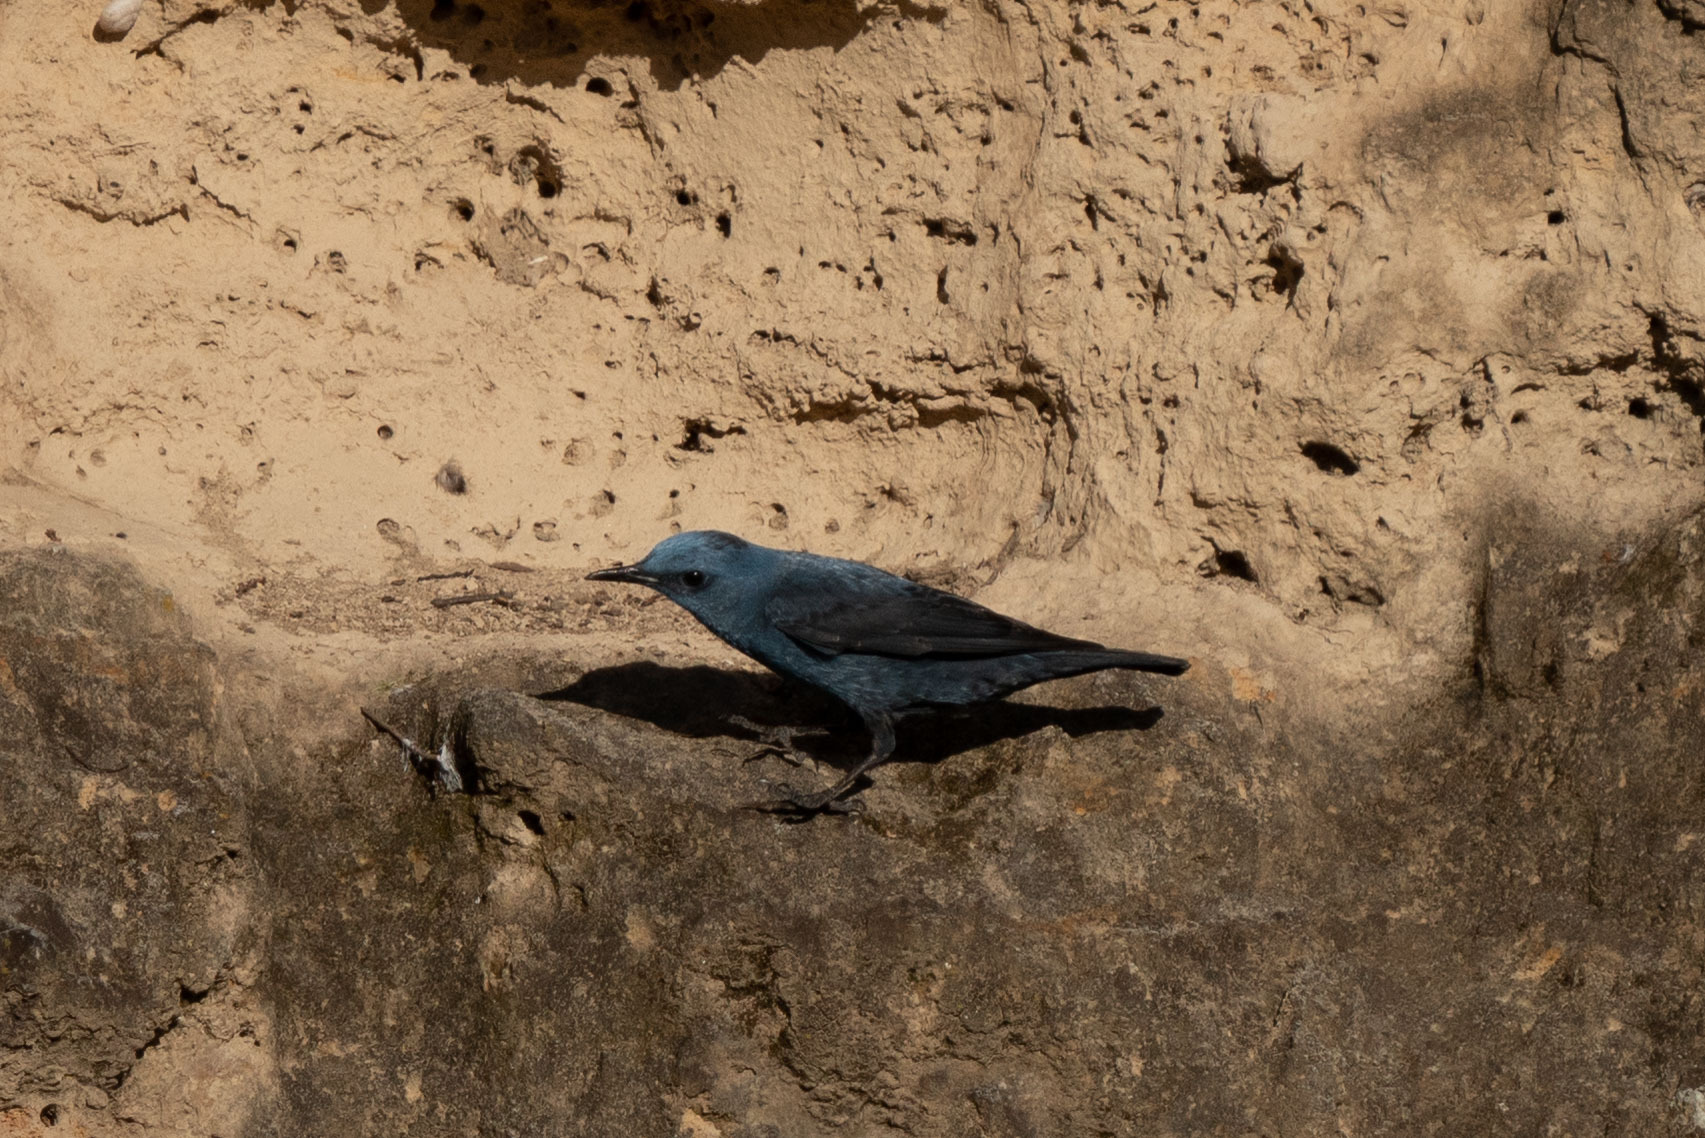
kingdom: Animalia
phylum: Chordata
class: Aves
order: Passeriformes
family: Muscicapidae
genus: Monticola
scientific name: Monticola solitarius
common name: Blue rock thrush
